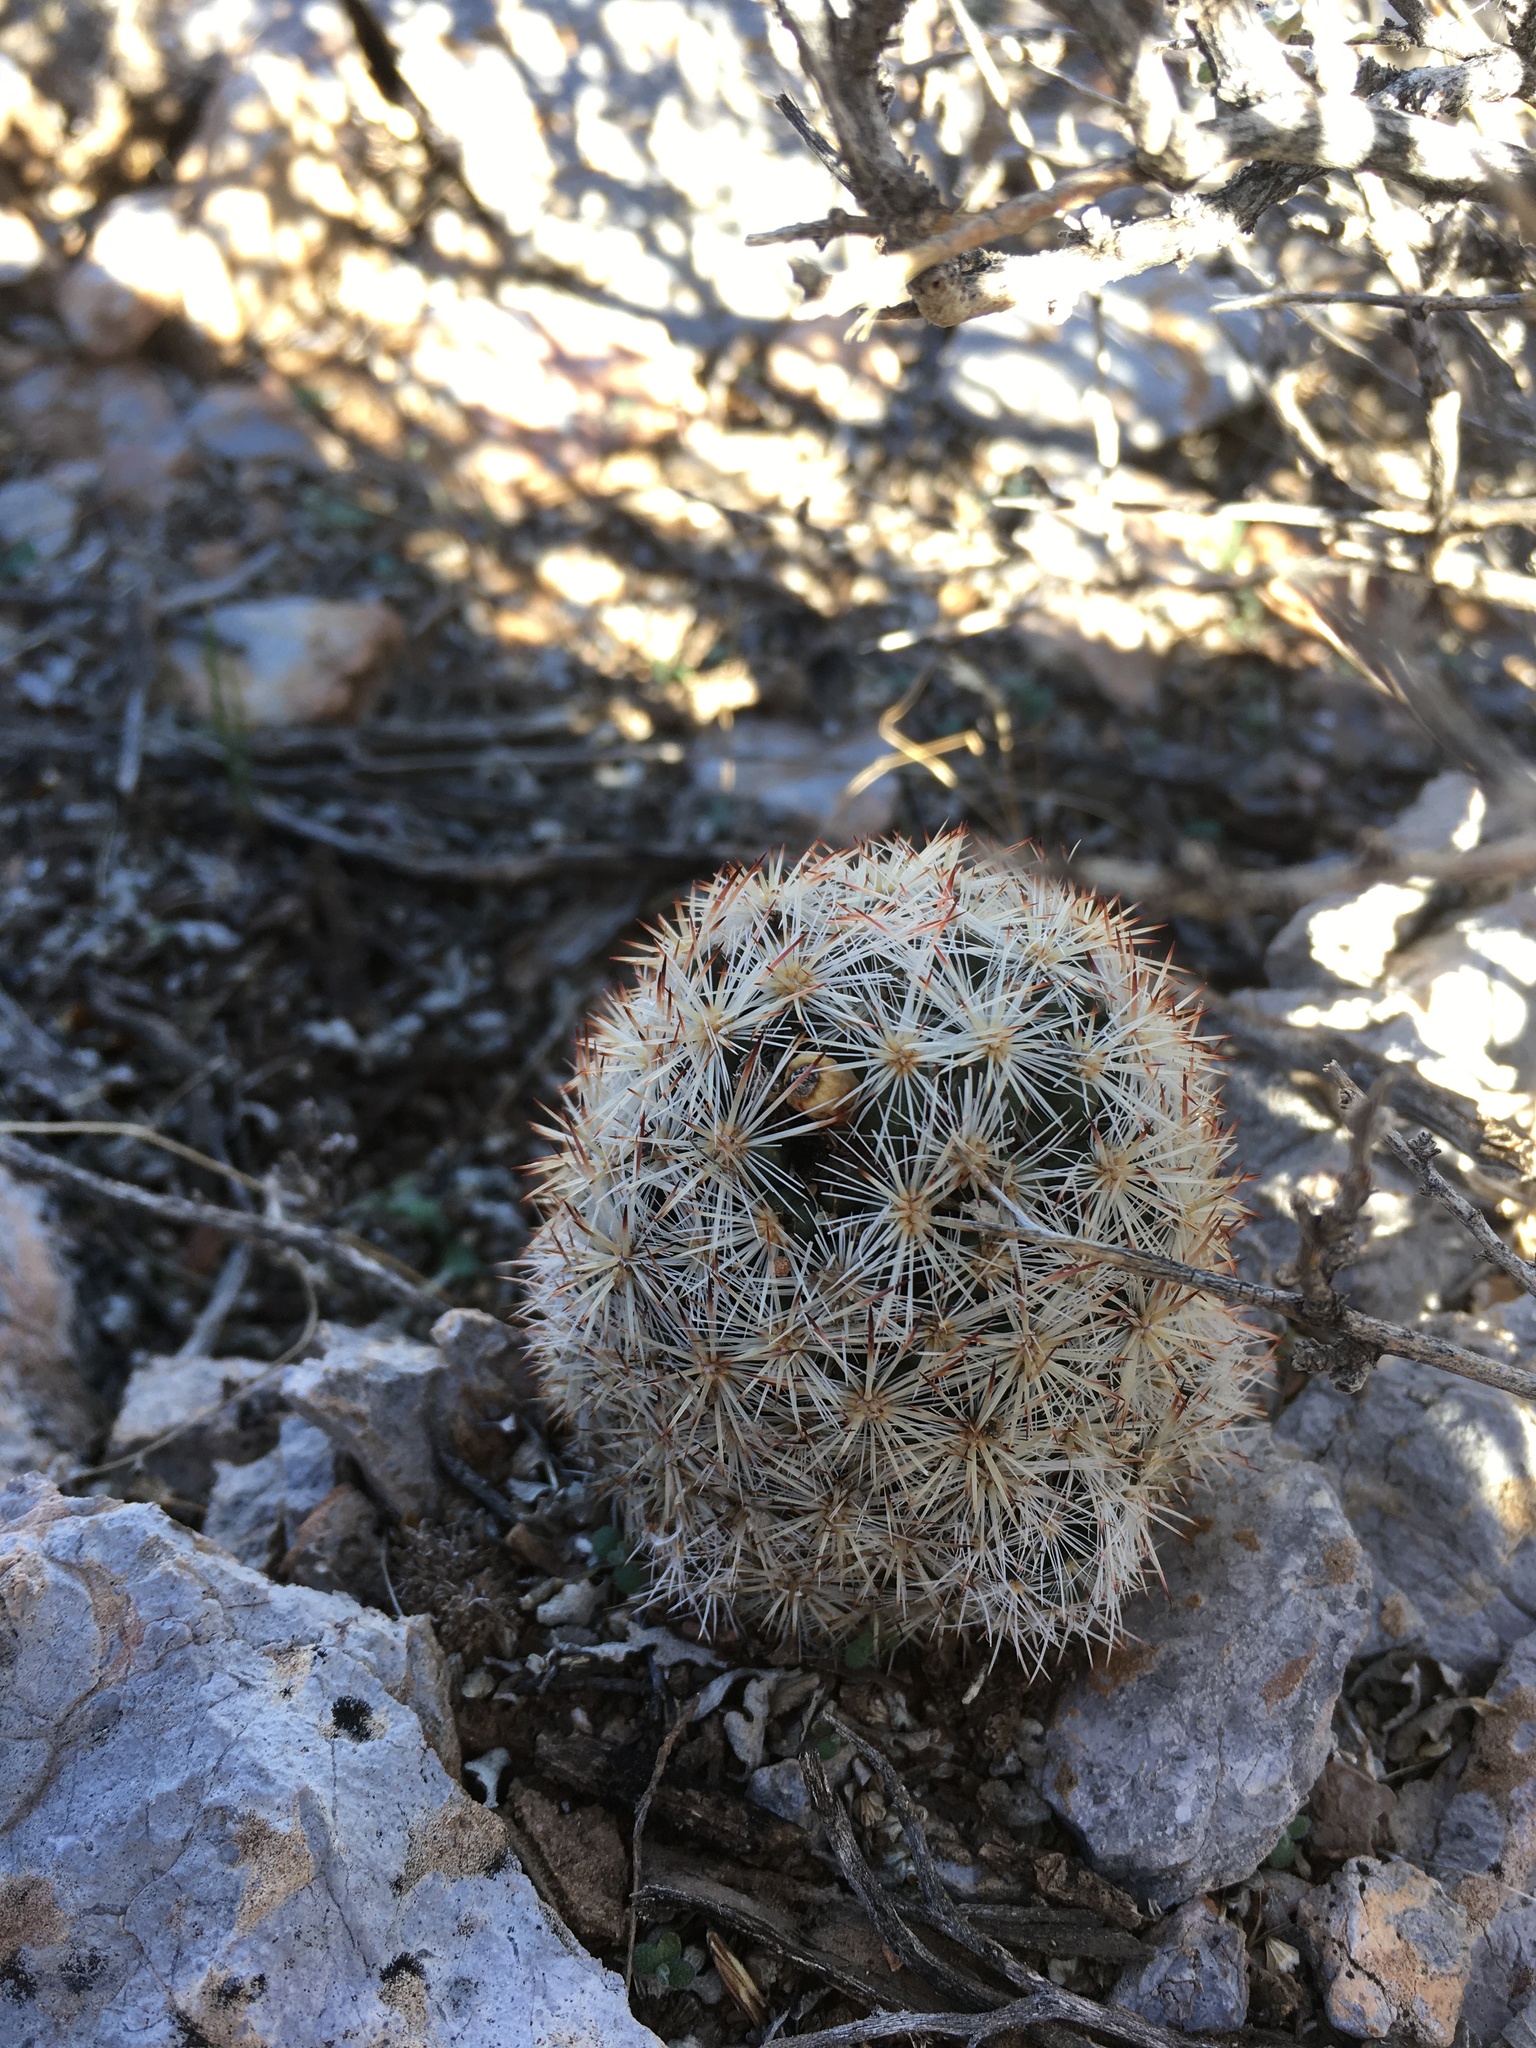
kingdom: Plantae
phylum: Tracheophyta
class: Magnoliopsida
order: Caryophyllales
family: Cactaceae
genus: Pelecyphora
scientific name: Pelecyphora sneedii
